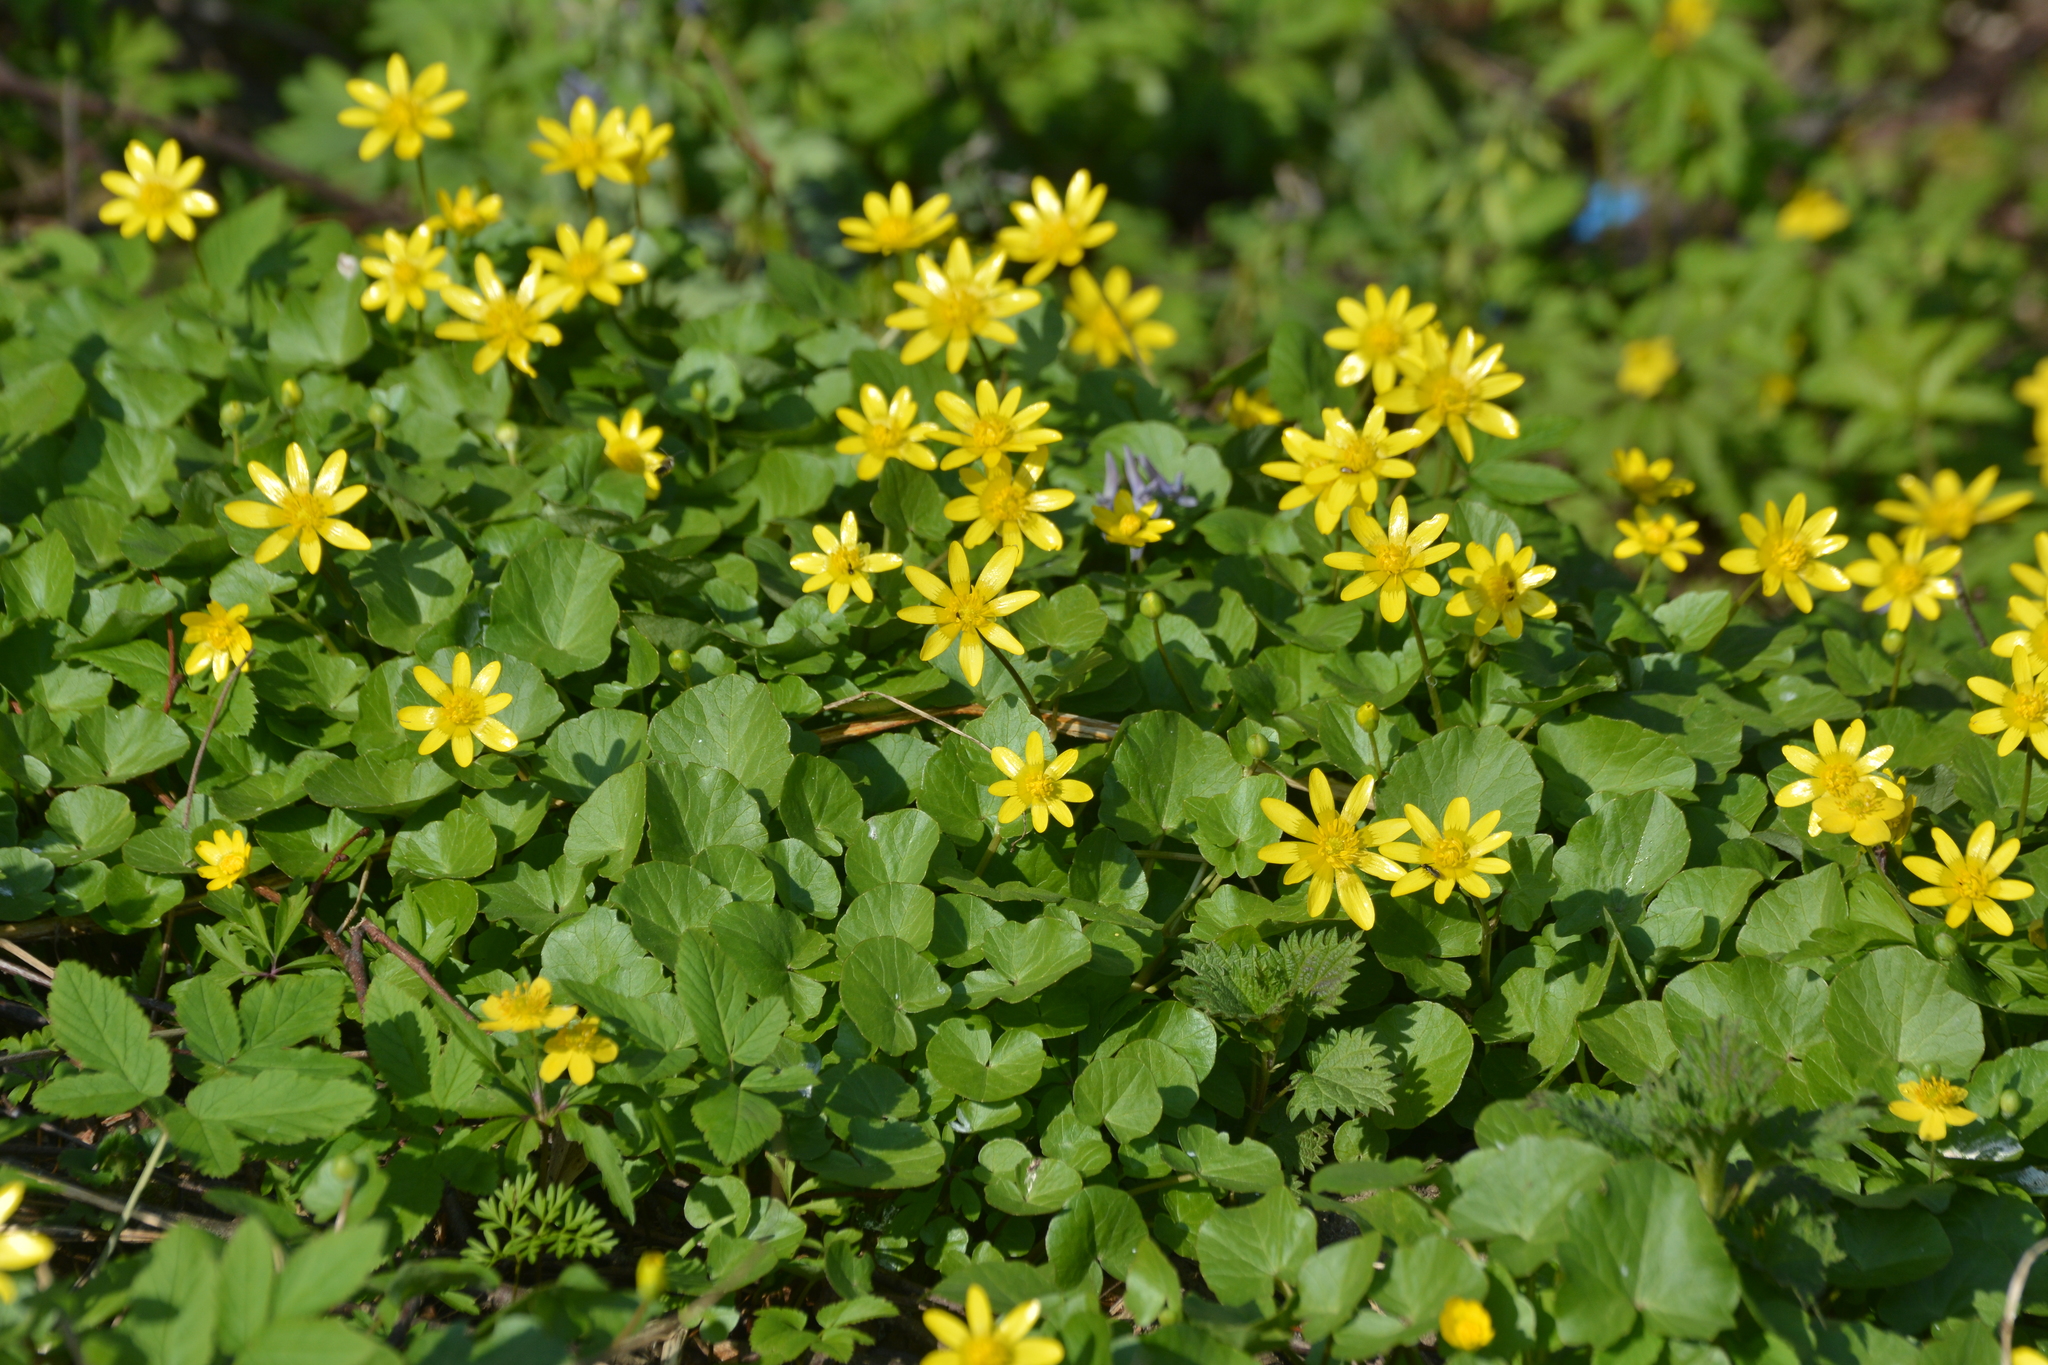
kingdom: Plantae
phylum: Tracheophyta
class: Magnoliopsida
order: Ranunculales
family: Ranunculaceae
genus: Ficaria
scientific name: Ficaria verna
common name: Lesser celandine
